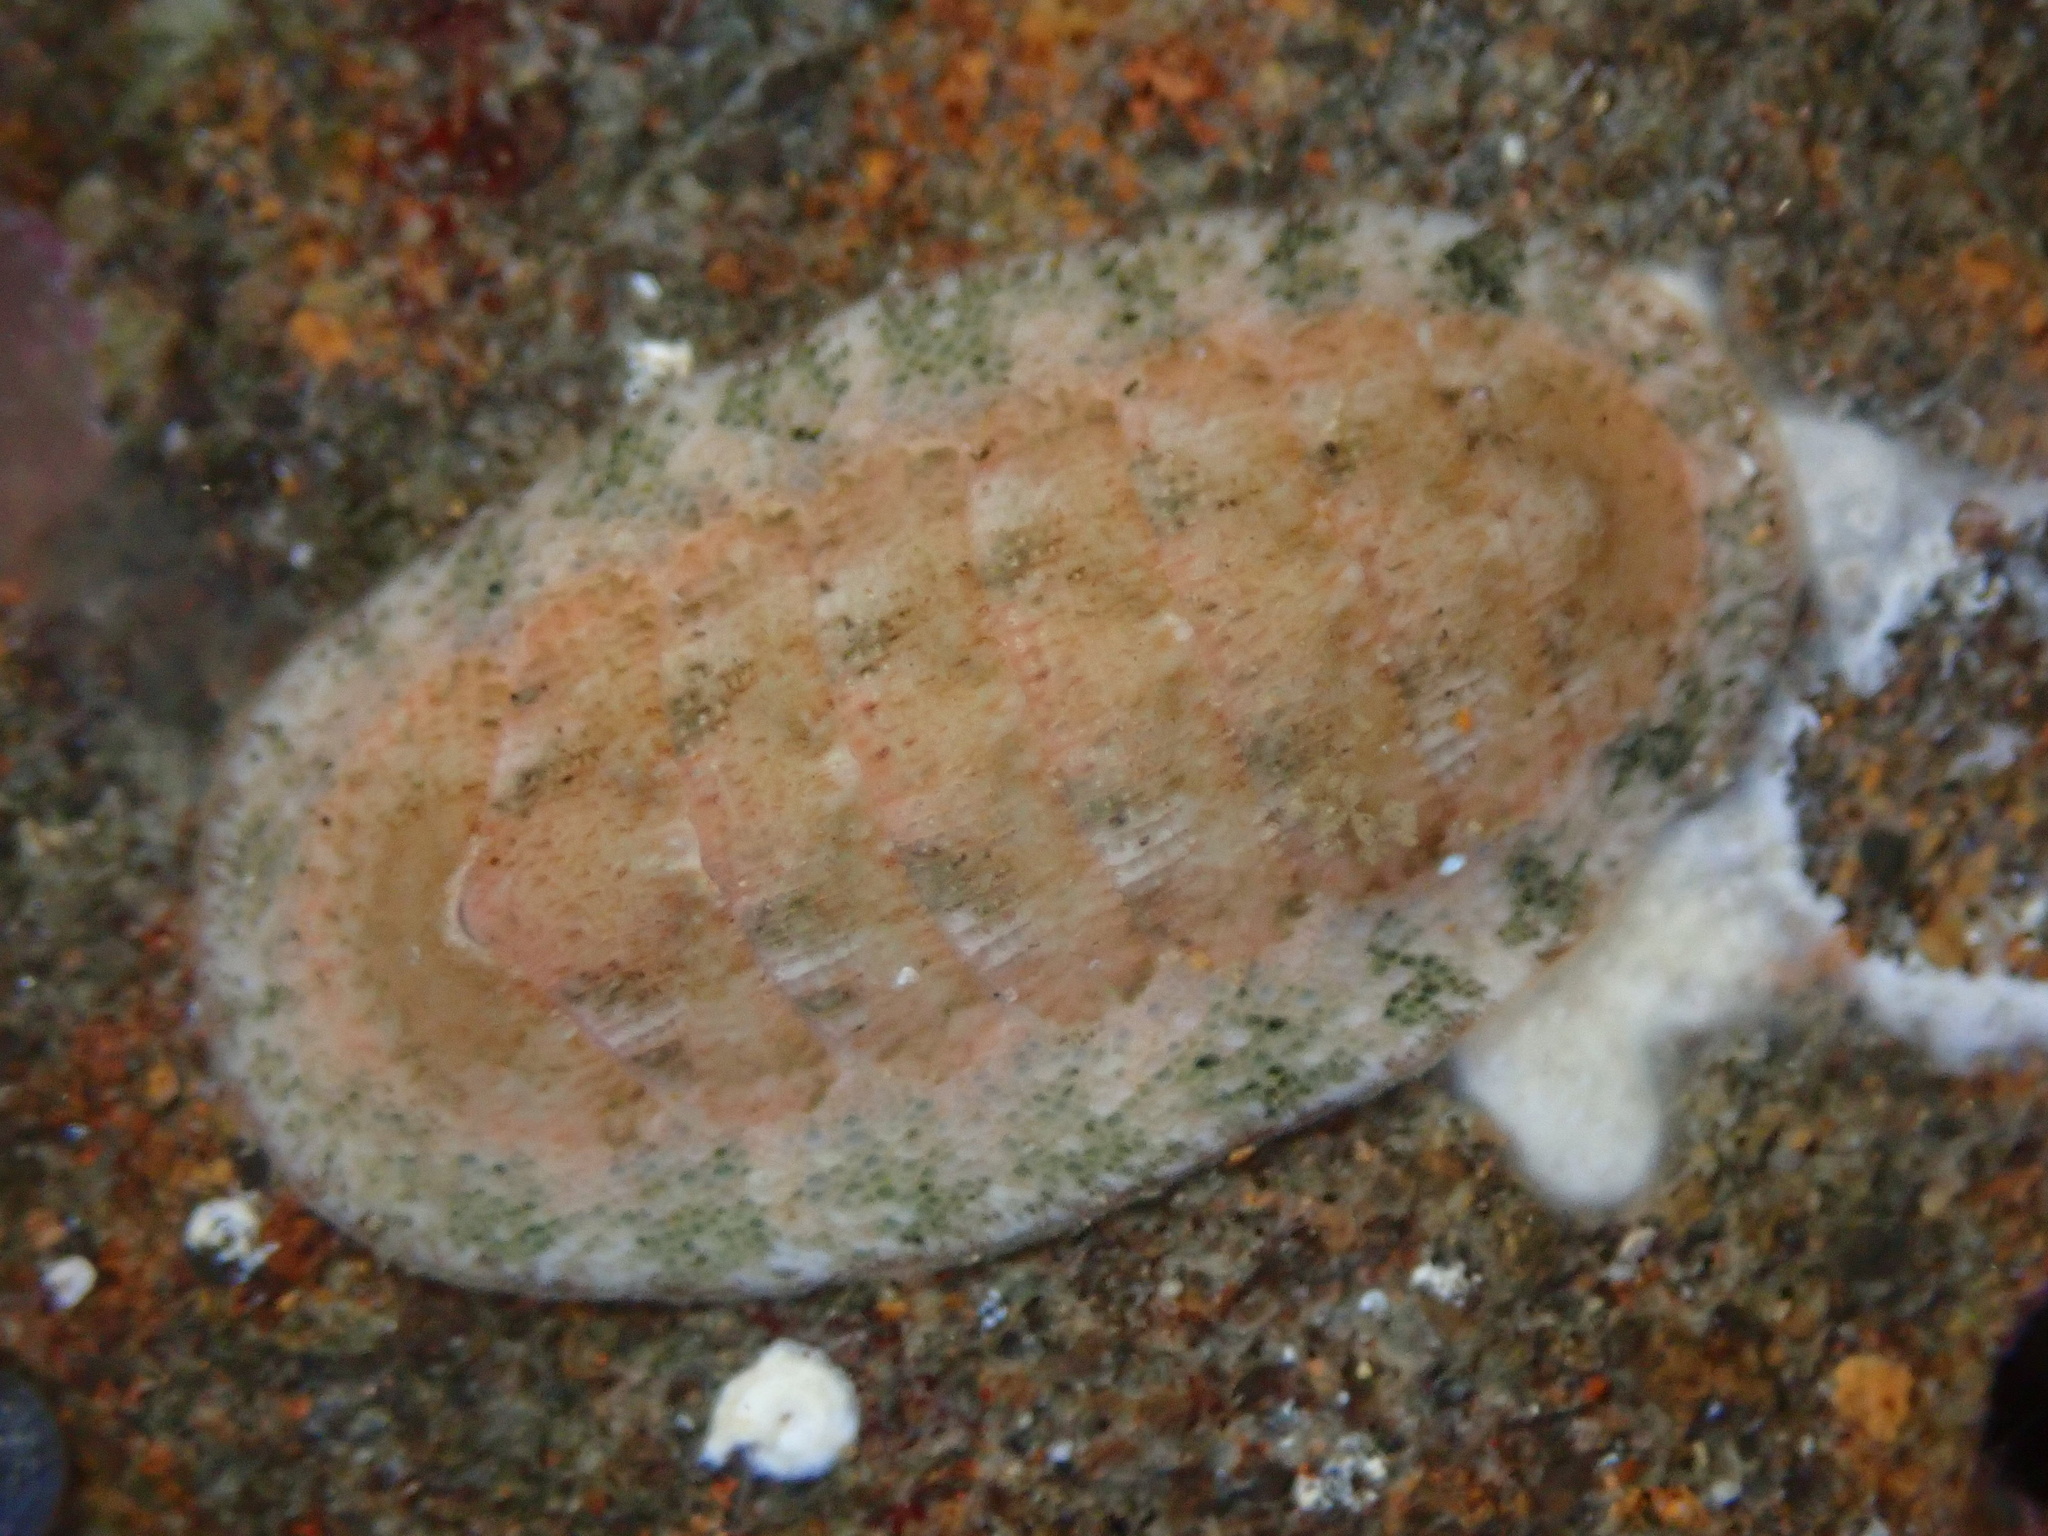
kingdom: Animalia
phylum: Mollusca
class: Polyplacophora
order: Chitonida
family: Ischnochitonidae
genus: Lepidozona
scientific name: Lepidozona pectinulata
